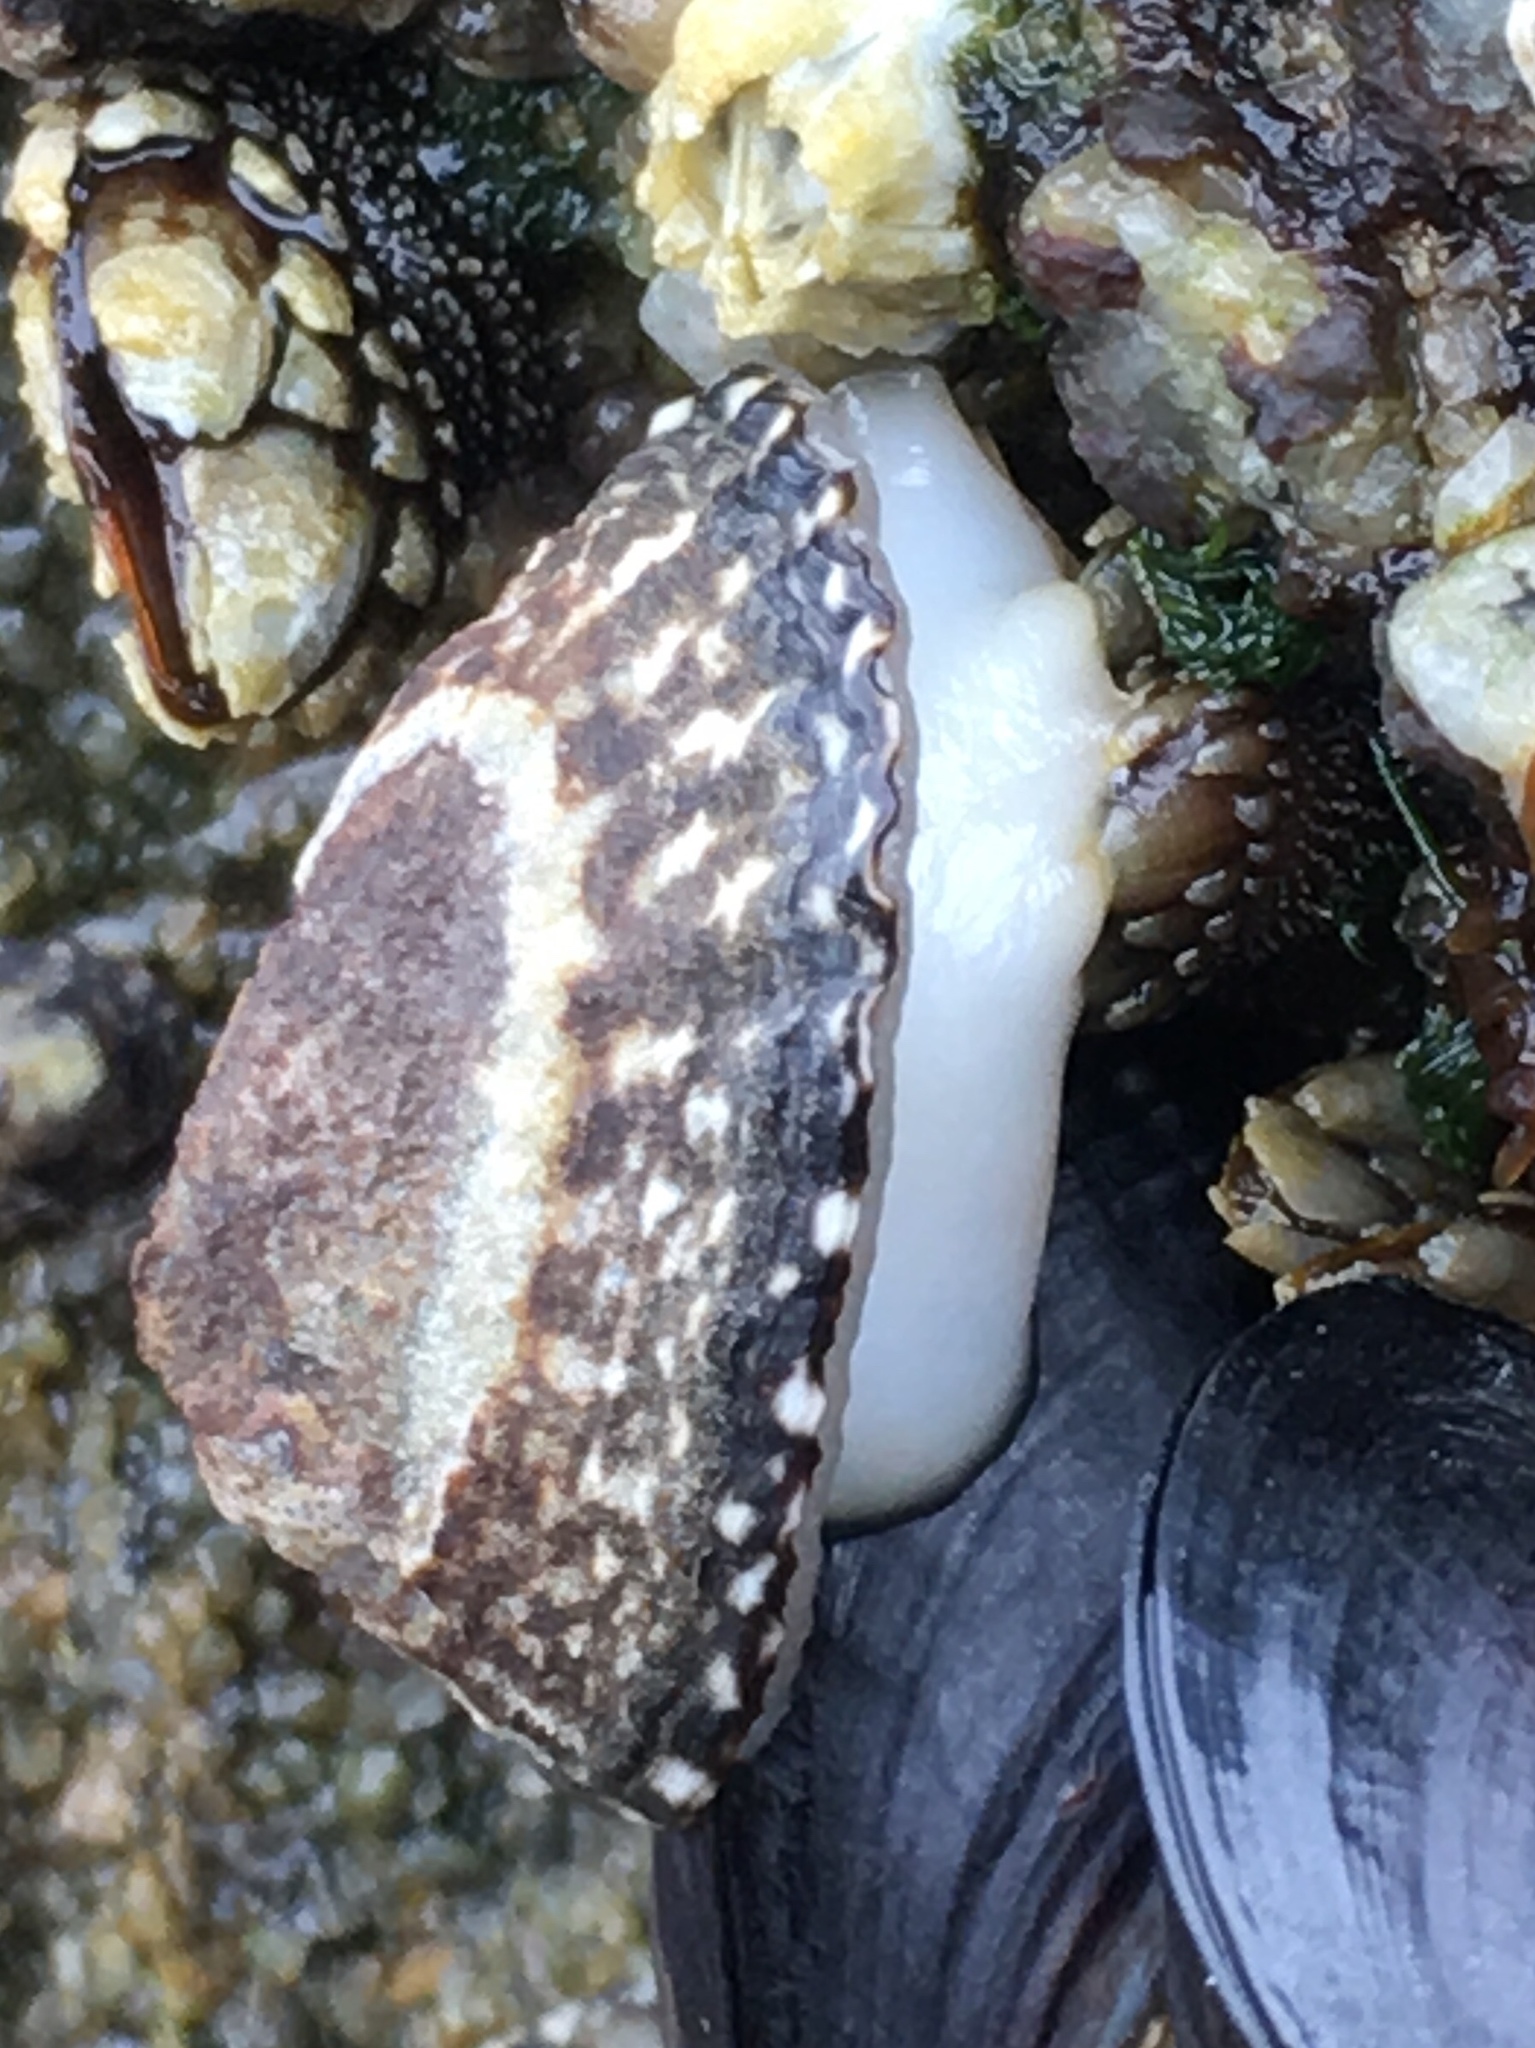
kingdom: Animalia
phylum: Mollusca
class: Gastropoda
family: Lottiidae
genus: Lottia
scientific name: Lottia digitalis
